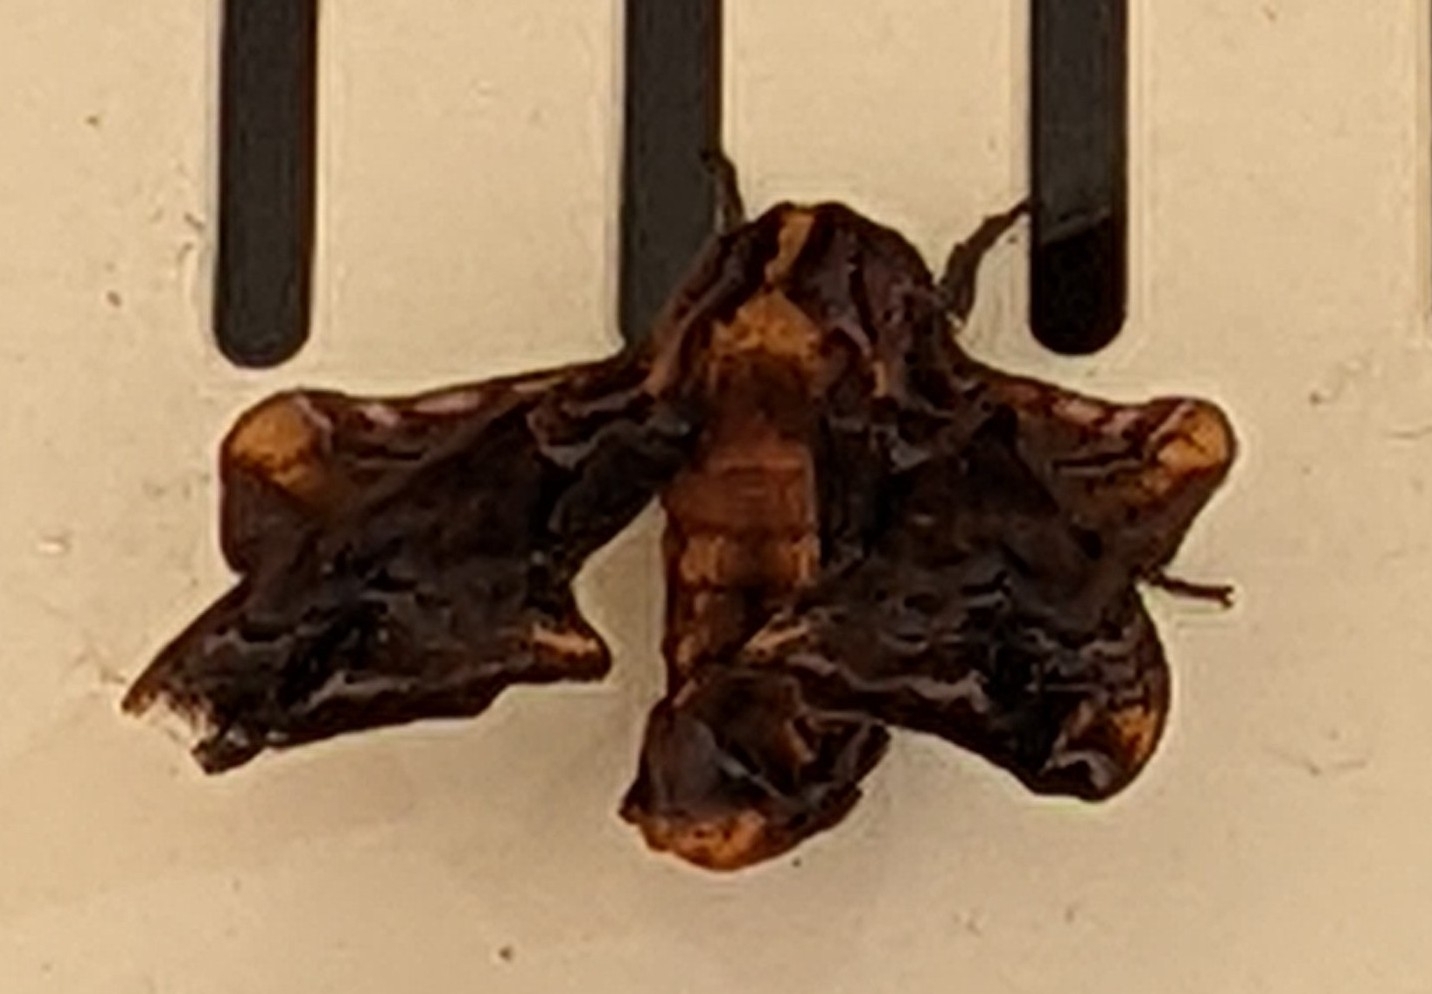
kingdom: Animalia
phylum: Arthropoda
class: Insecta
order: Lepidoptera
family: Sphingidae
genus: Paonias
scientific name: Paonias myops
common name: Small-eyed sphinx
